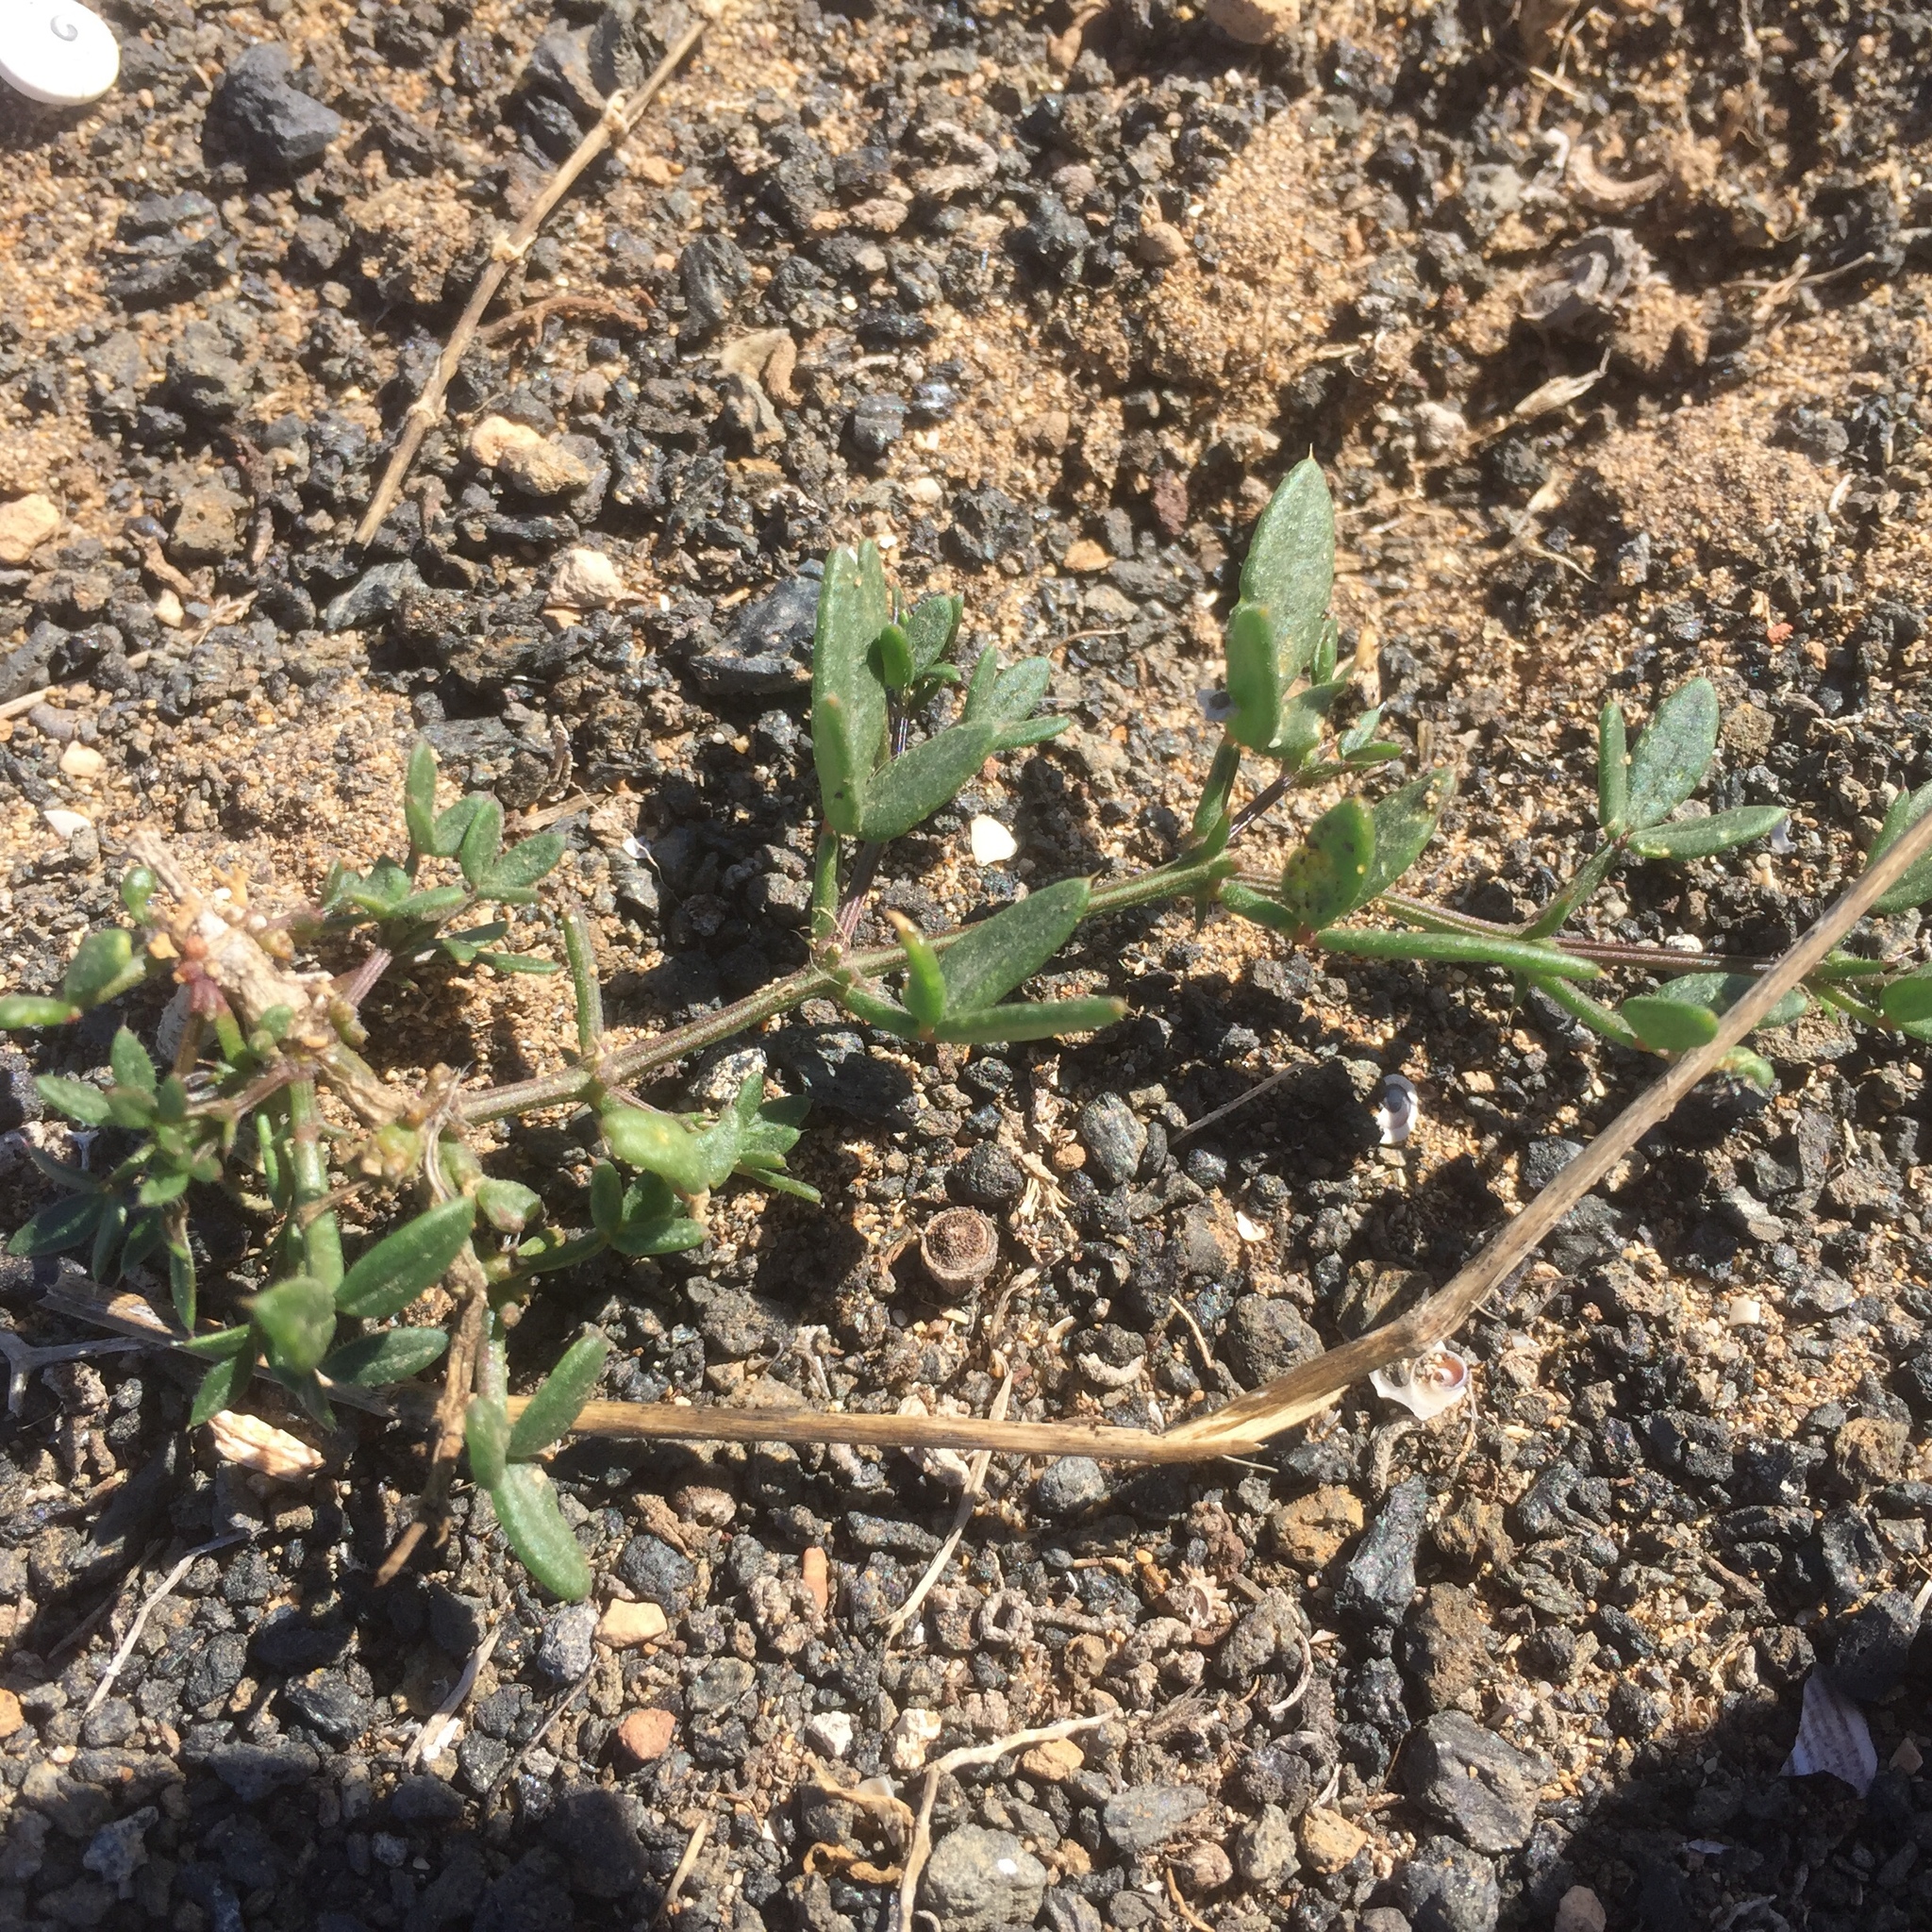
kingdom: Plantae
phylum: Tracheophyta
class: Magnoliopsida
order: Zygophyllales
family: Zygophyllaceae
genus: Fagonia
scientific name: Fagonia cretica
